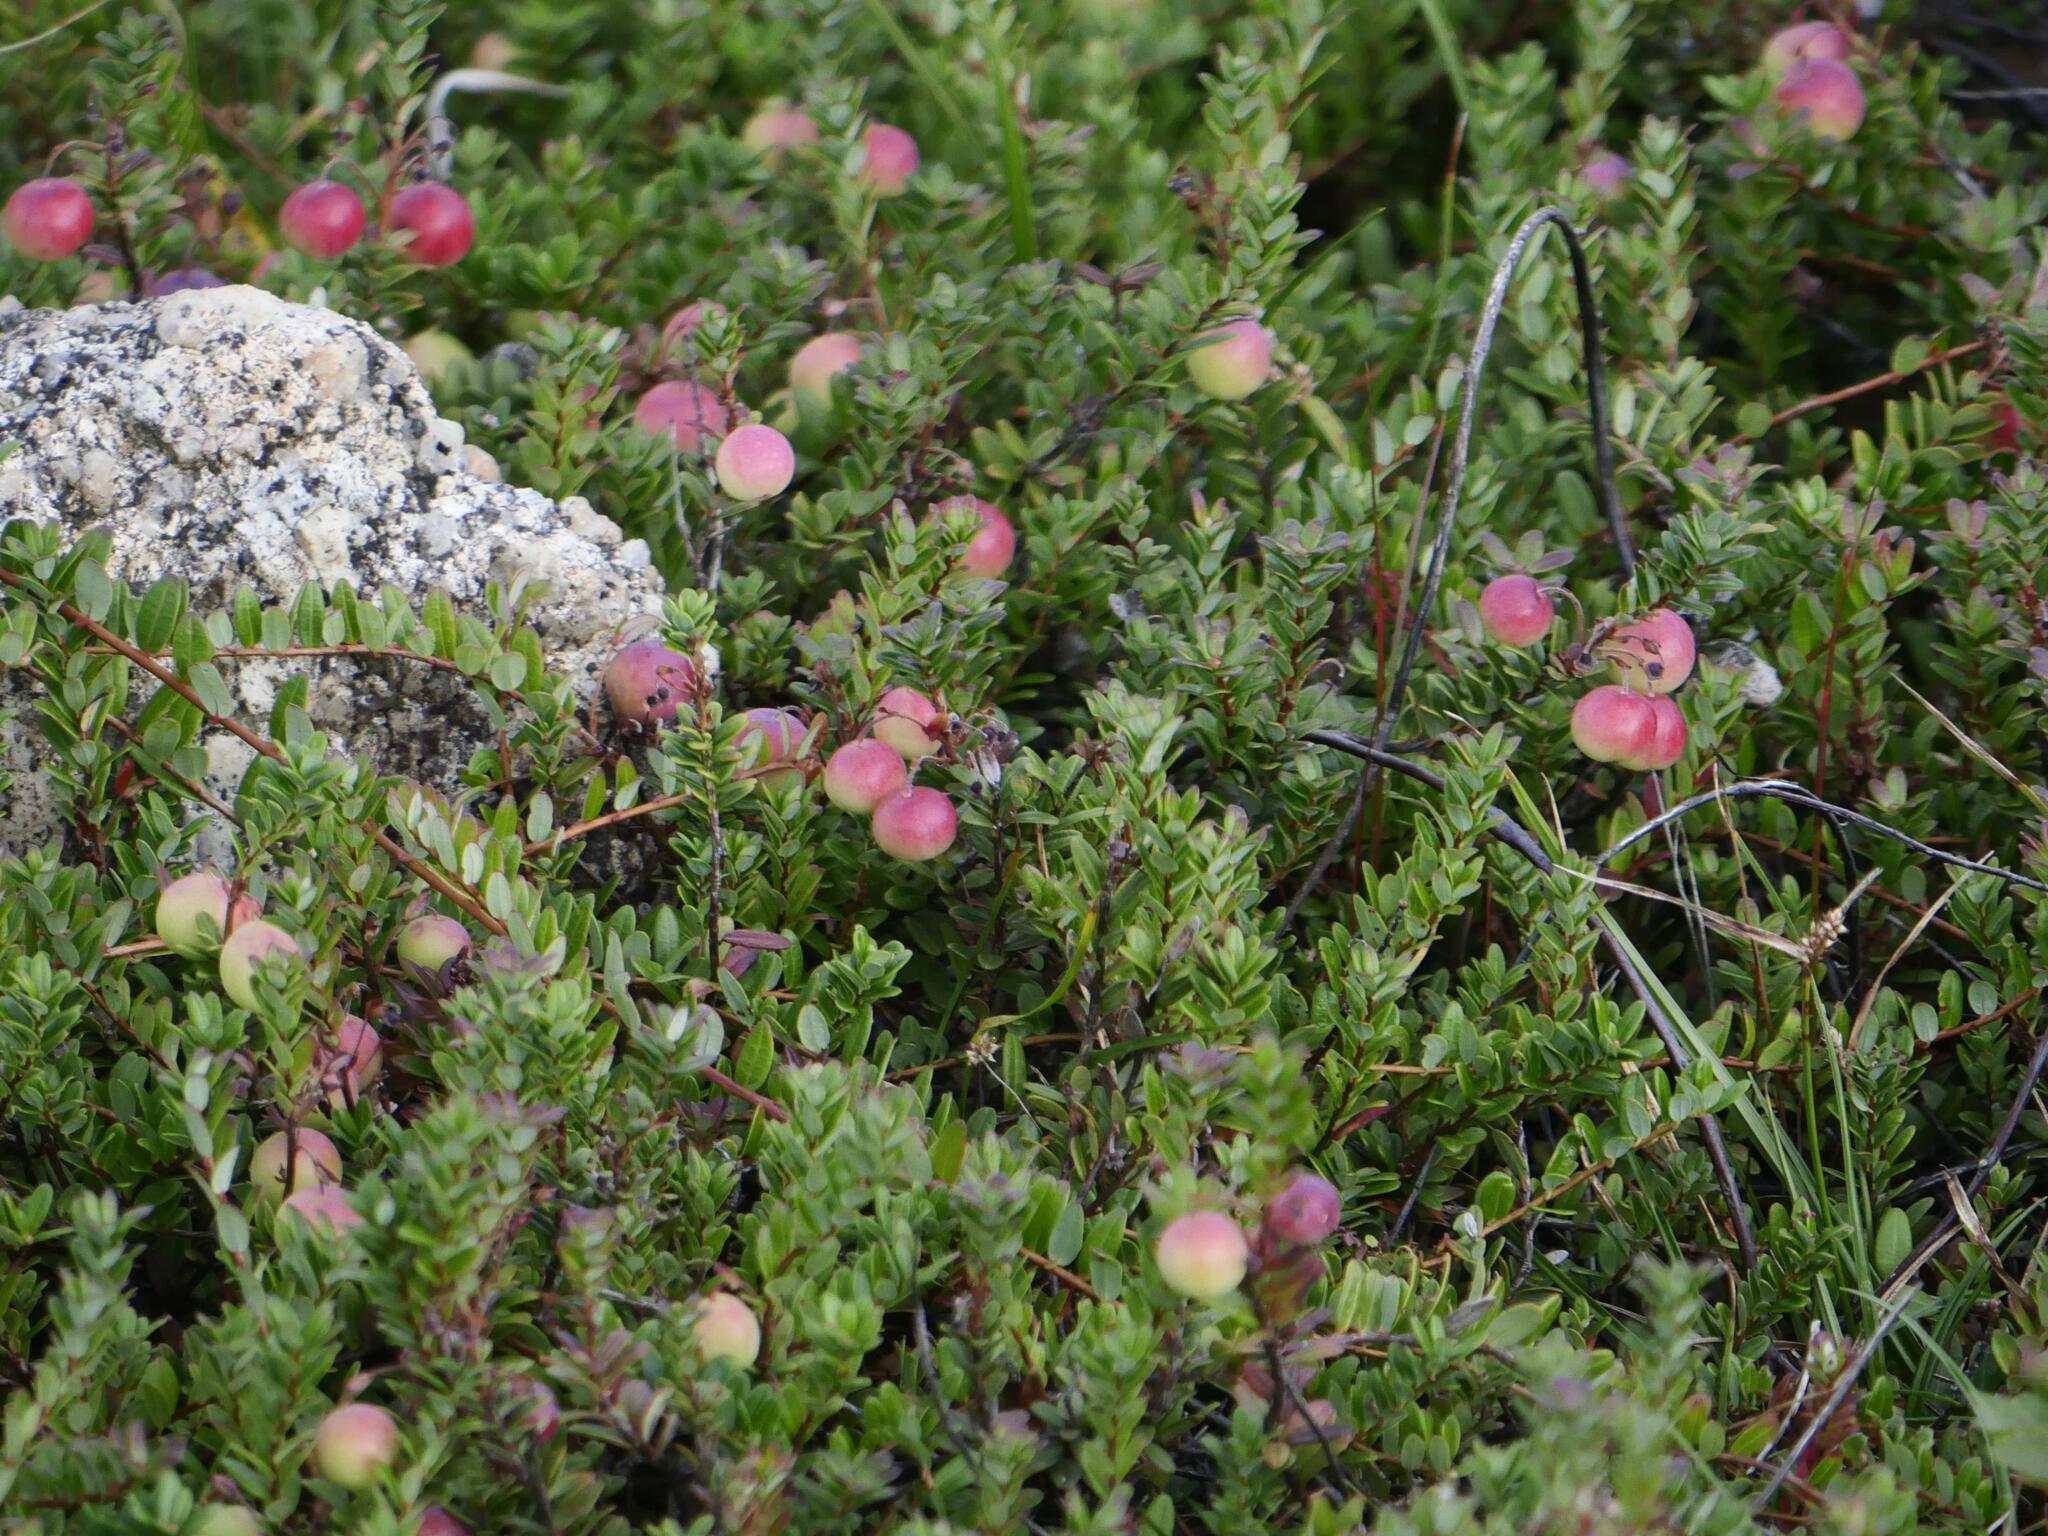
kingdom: Plantae
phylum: Tracheophyta
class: Magnoliopsida
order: Ericales
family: Ericaceae
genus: Vaccinium
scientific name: Vaccinium macrocarpon
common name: American cranberry
